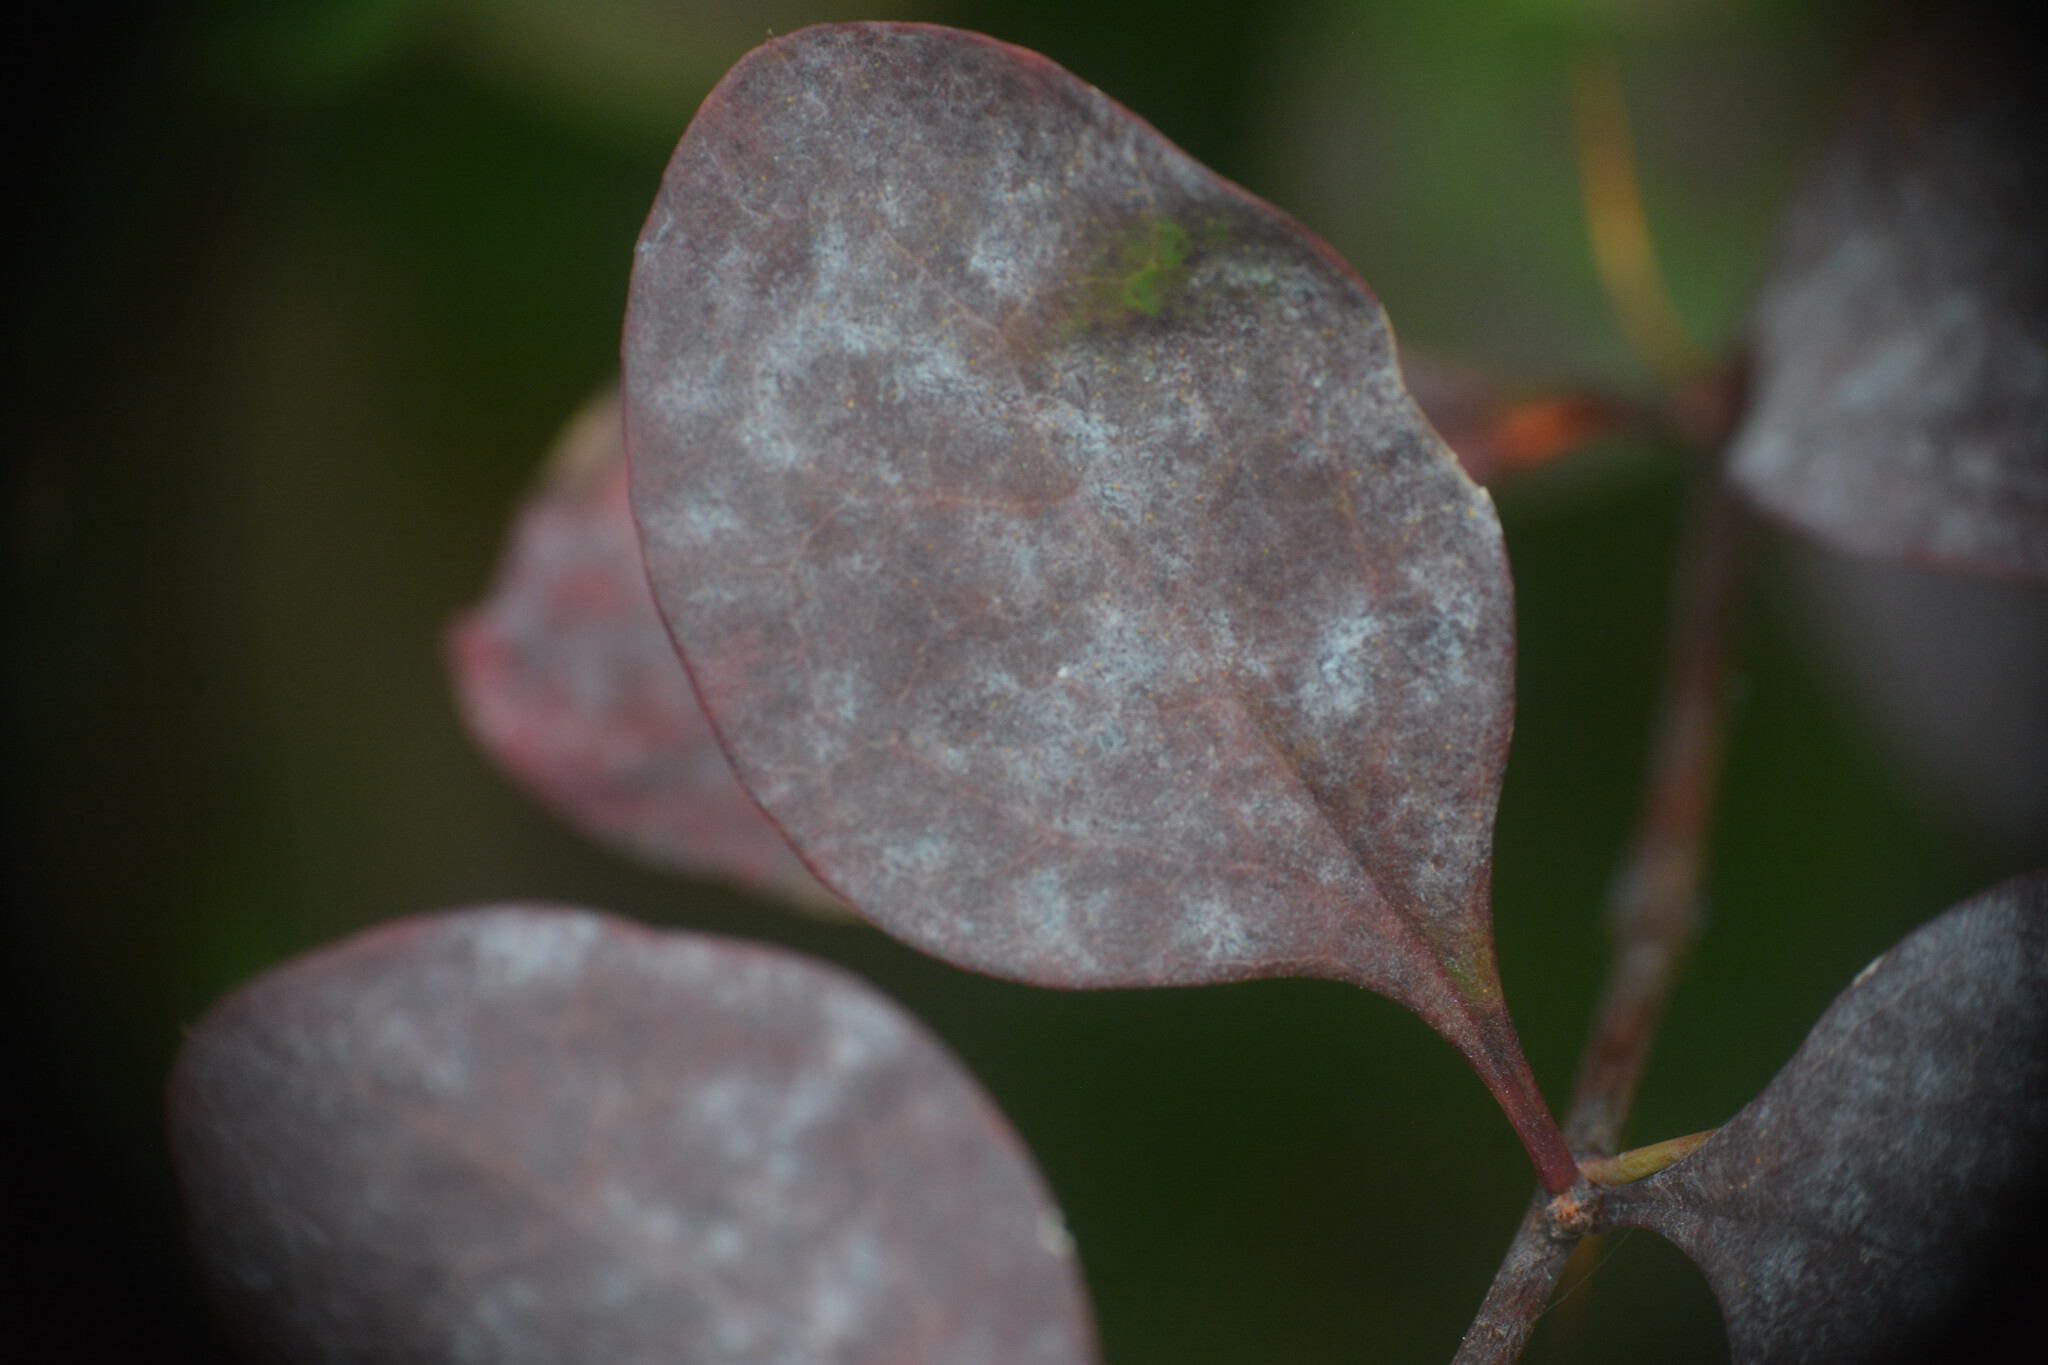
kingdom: Fungi
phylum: Ascomycota
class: Leotiomycetes
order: Helotiales
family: Erysiphaceae
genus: Erysiphe
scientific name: Erysiphe berberidis
